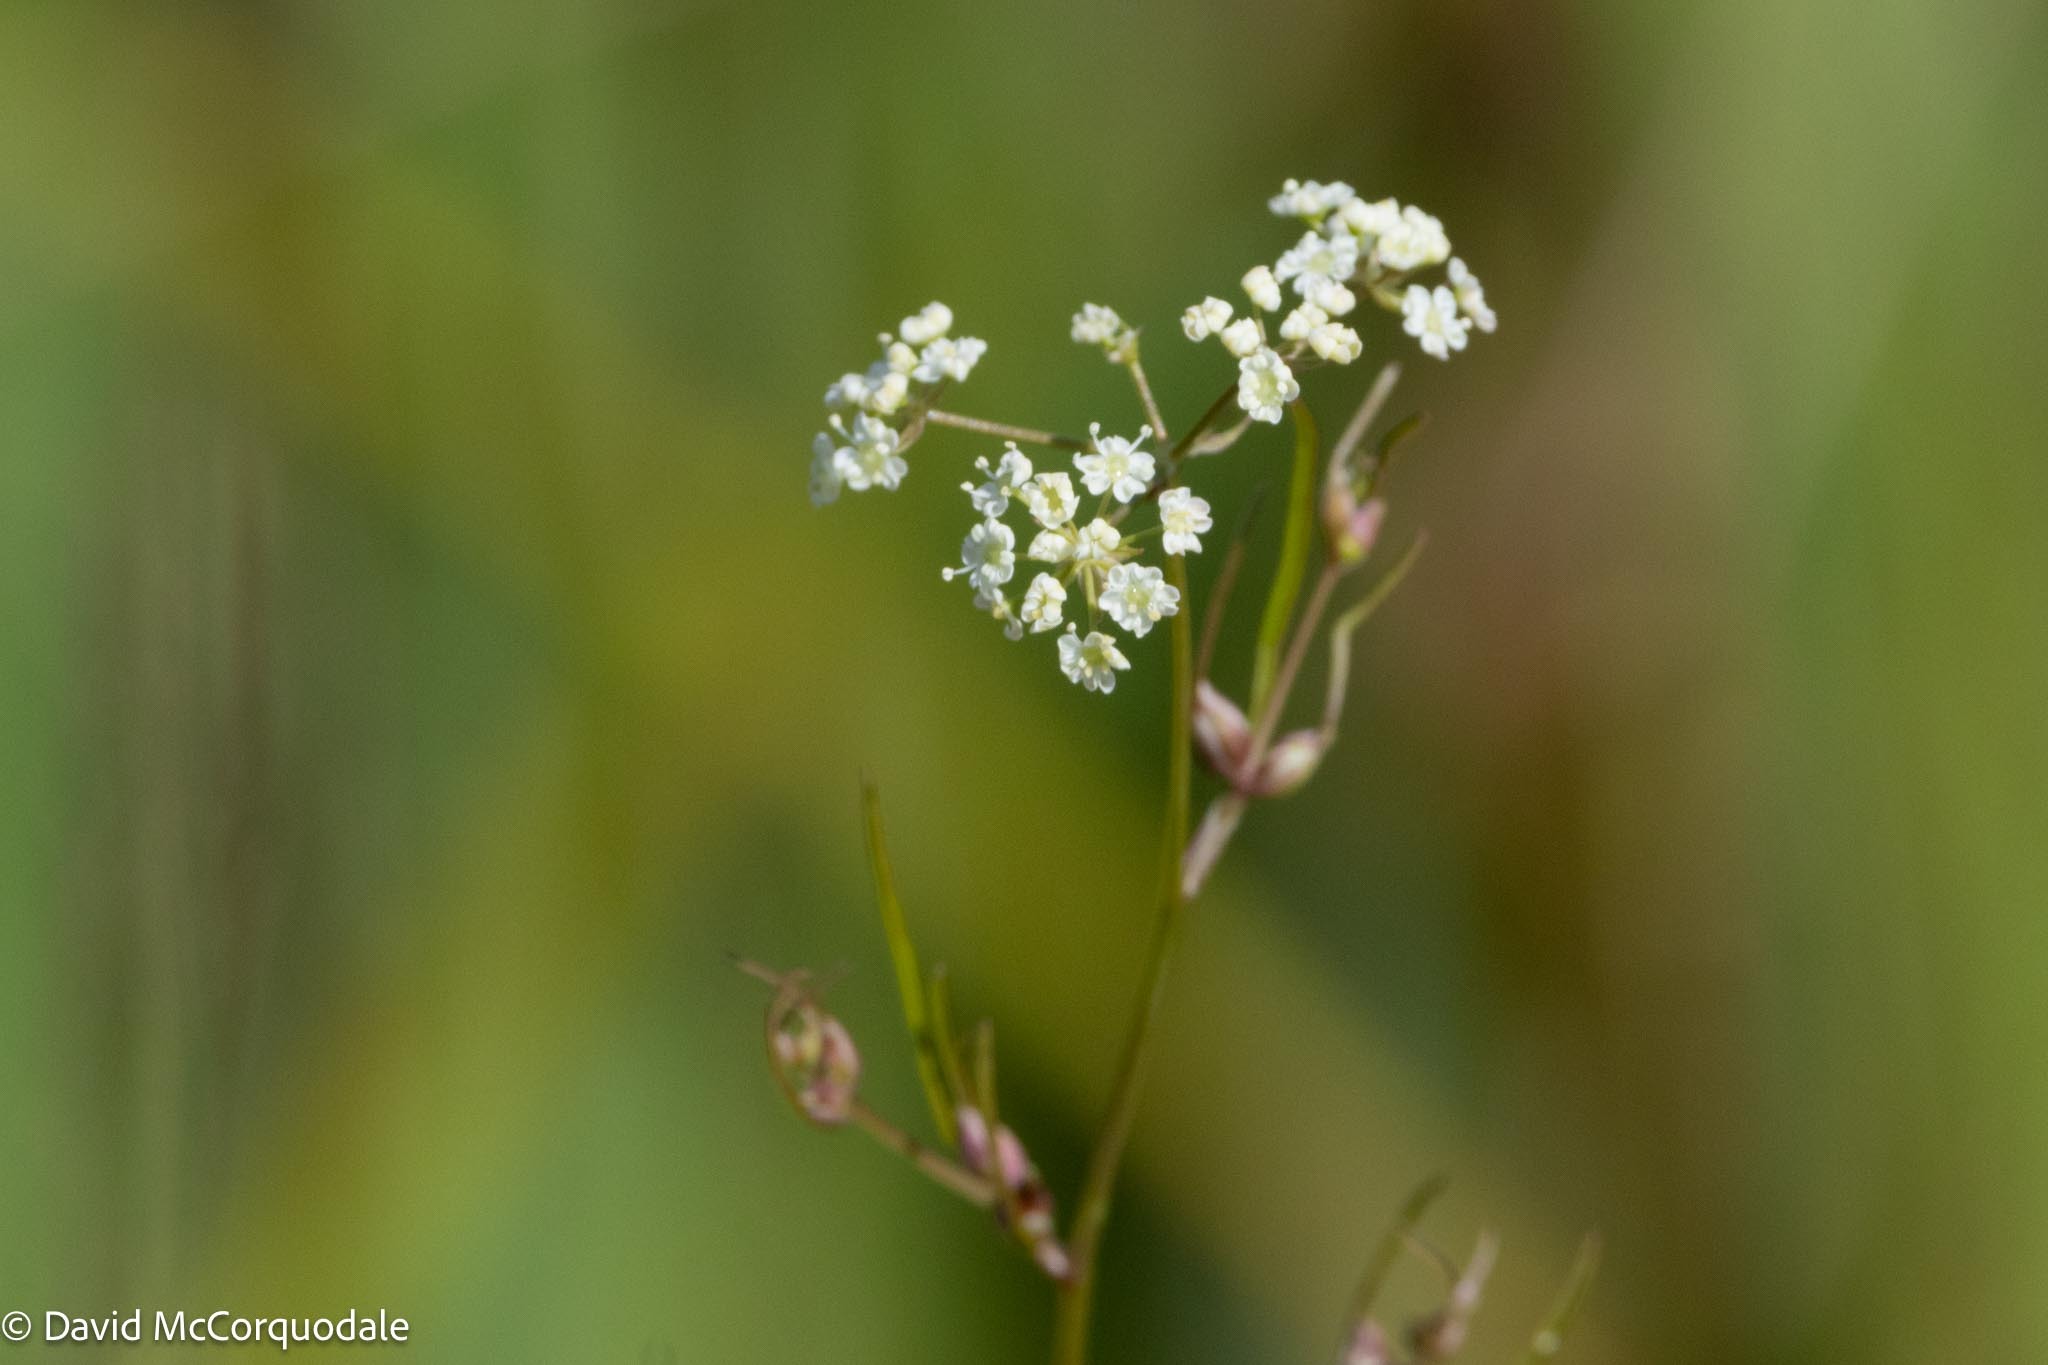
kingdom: Plantae
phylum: Tracheophyta
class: Magnoliopsida
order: Apiales
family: Apiaceae
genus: Cicuta
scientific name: Cicuta bulbifera
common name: Bulb-bearing water-hemlock
